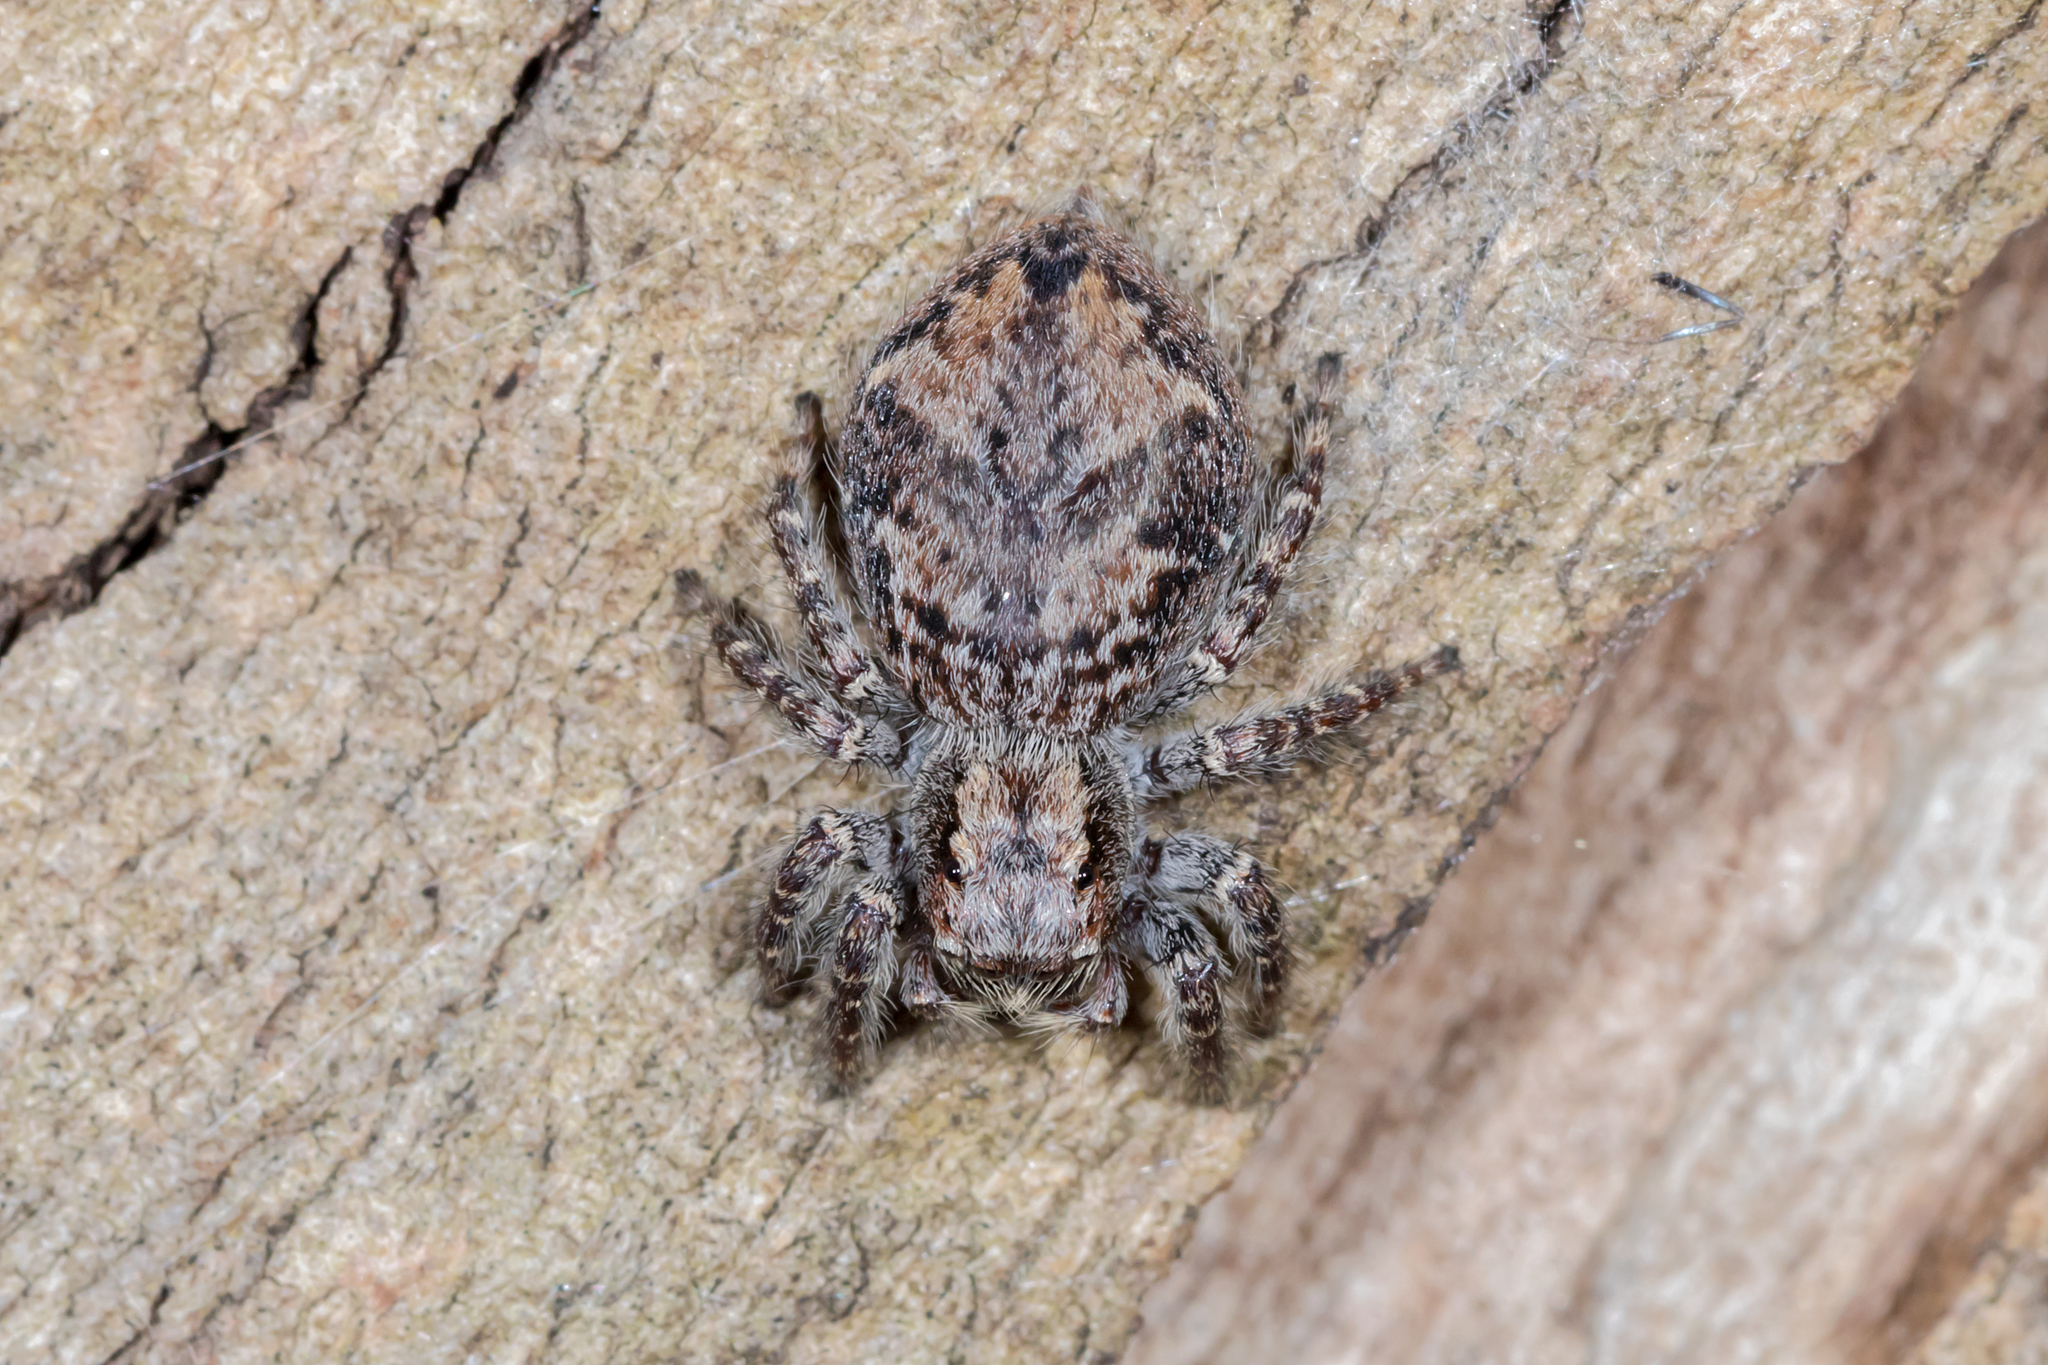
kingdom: Animalia
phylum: Arthropoda
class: Arachnida
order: Araneae
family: Salticidae
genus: Servaea
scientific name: Servaea incana
